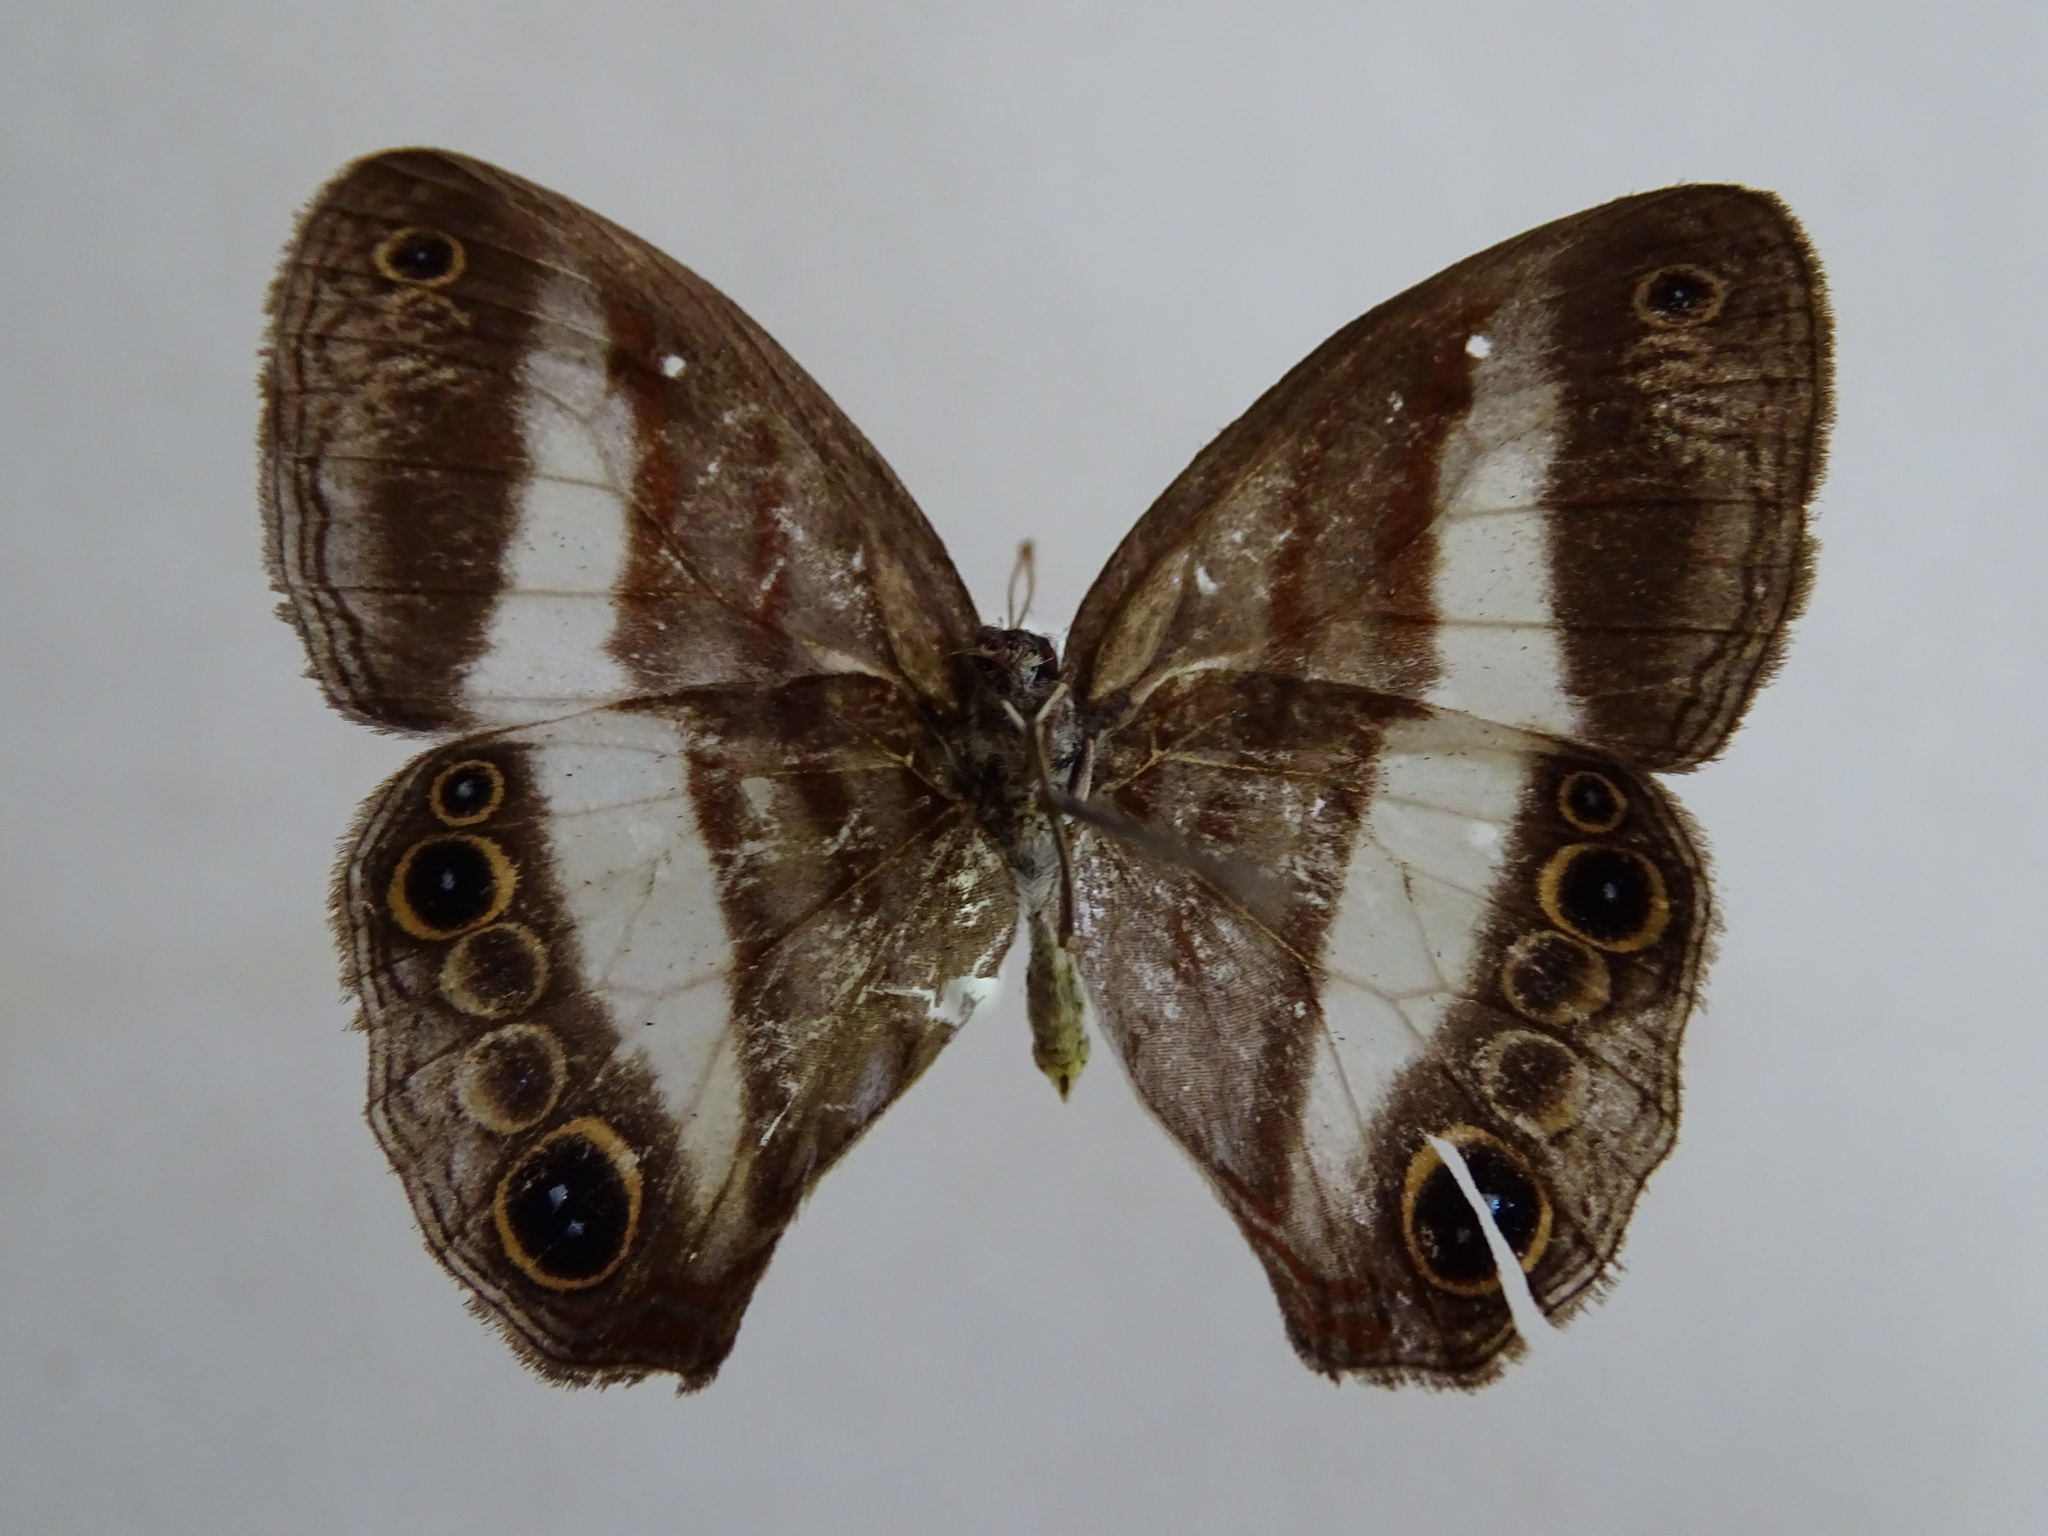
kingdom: Animalia
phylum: Arthropoda
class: Insecta
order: Lepidoptera
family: Nymphalidae
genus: Pareuptychia
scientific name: Pareuptychia metaleuca
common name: White-banded satyr
